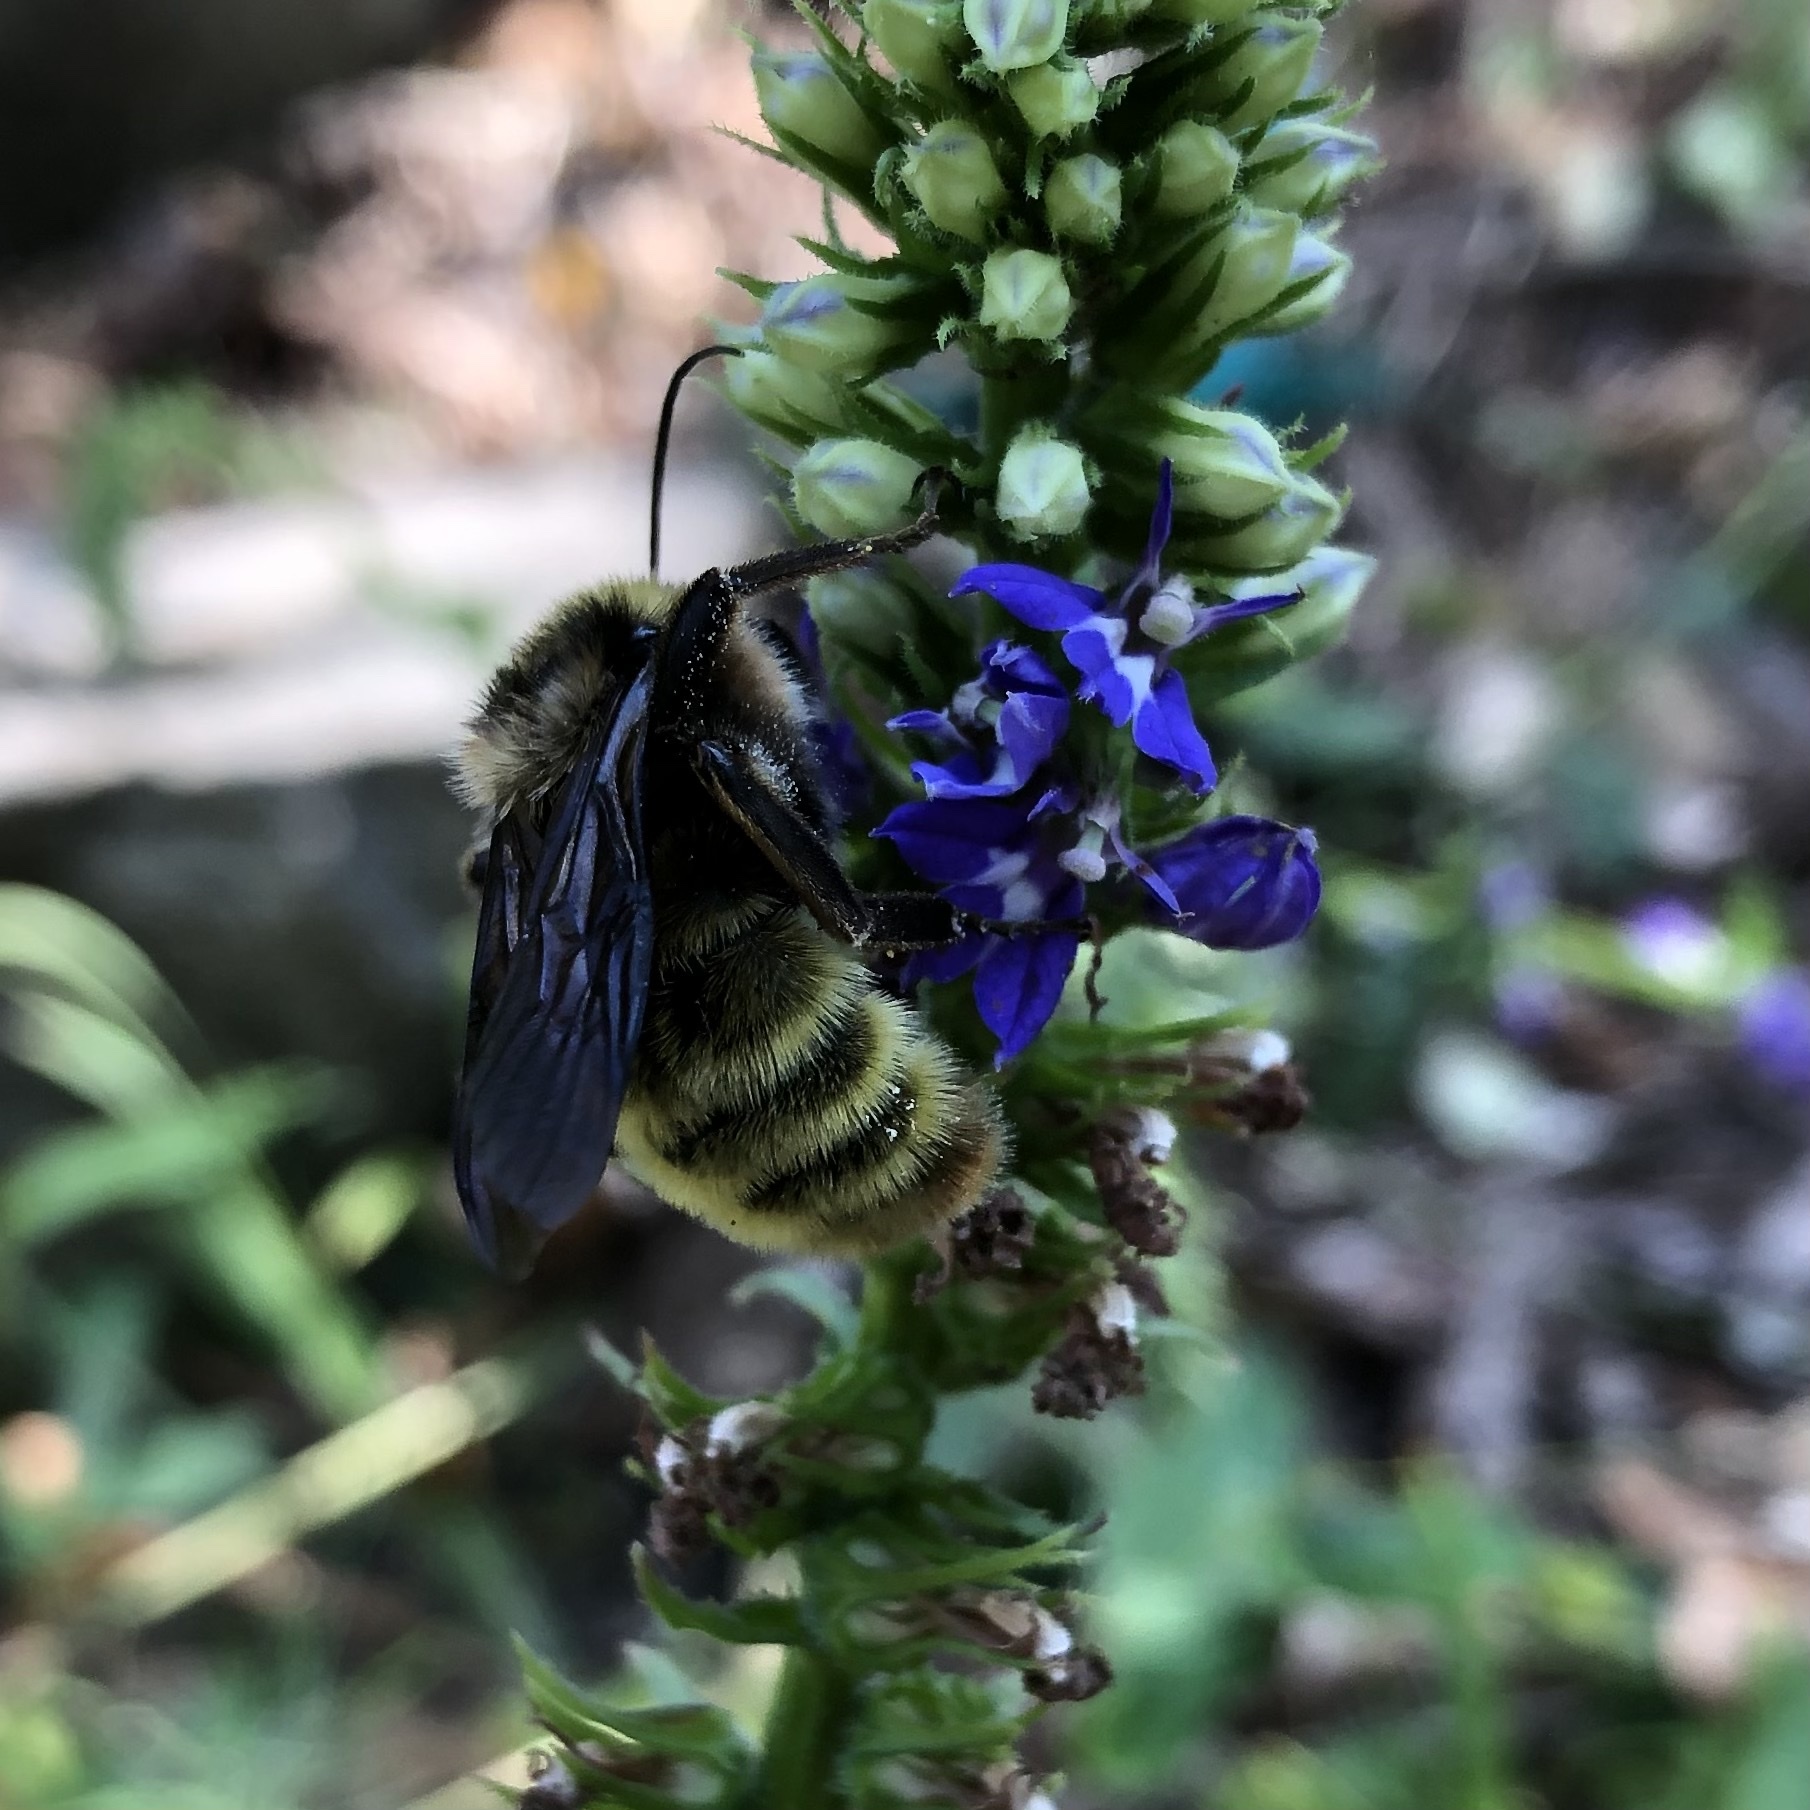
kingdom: Animalia
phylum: Arthropoda
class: Insecta
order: Hymenoptera
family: Apidae
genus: Bombus
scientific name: Bombus pensylvanicus
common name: Bumble bee
